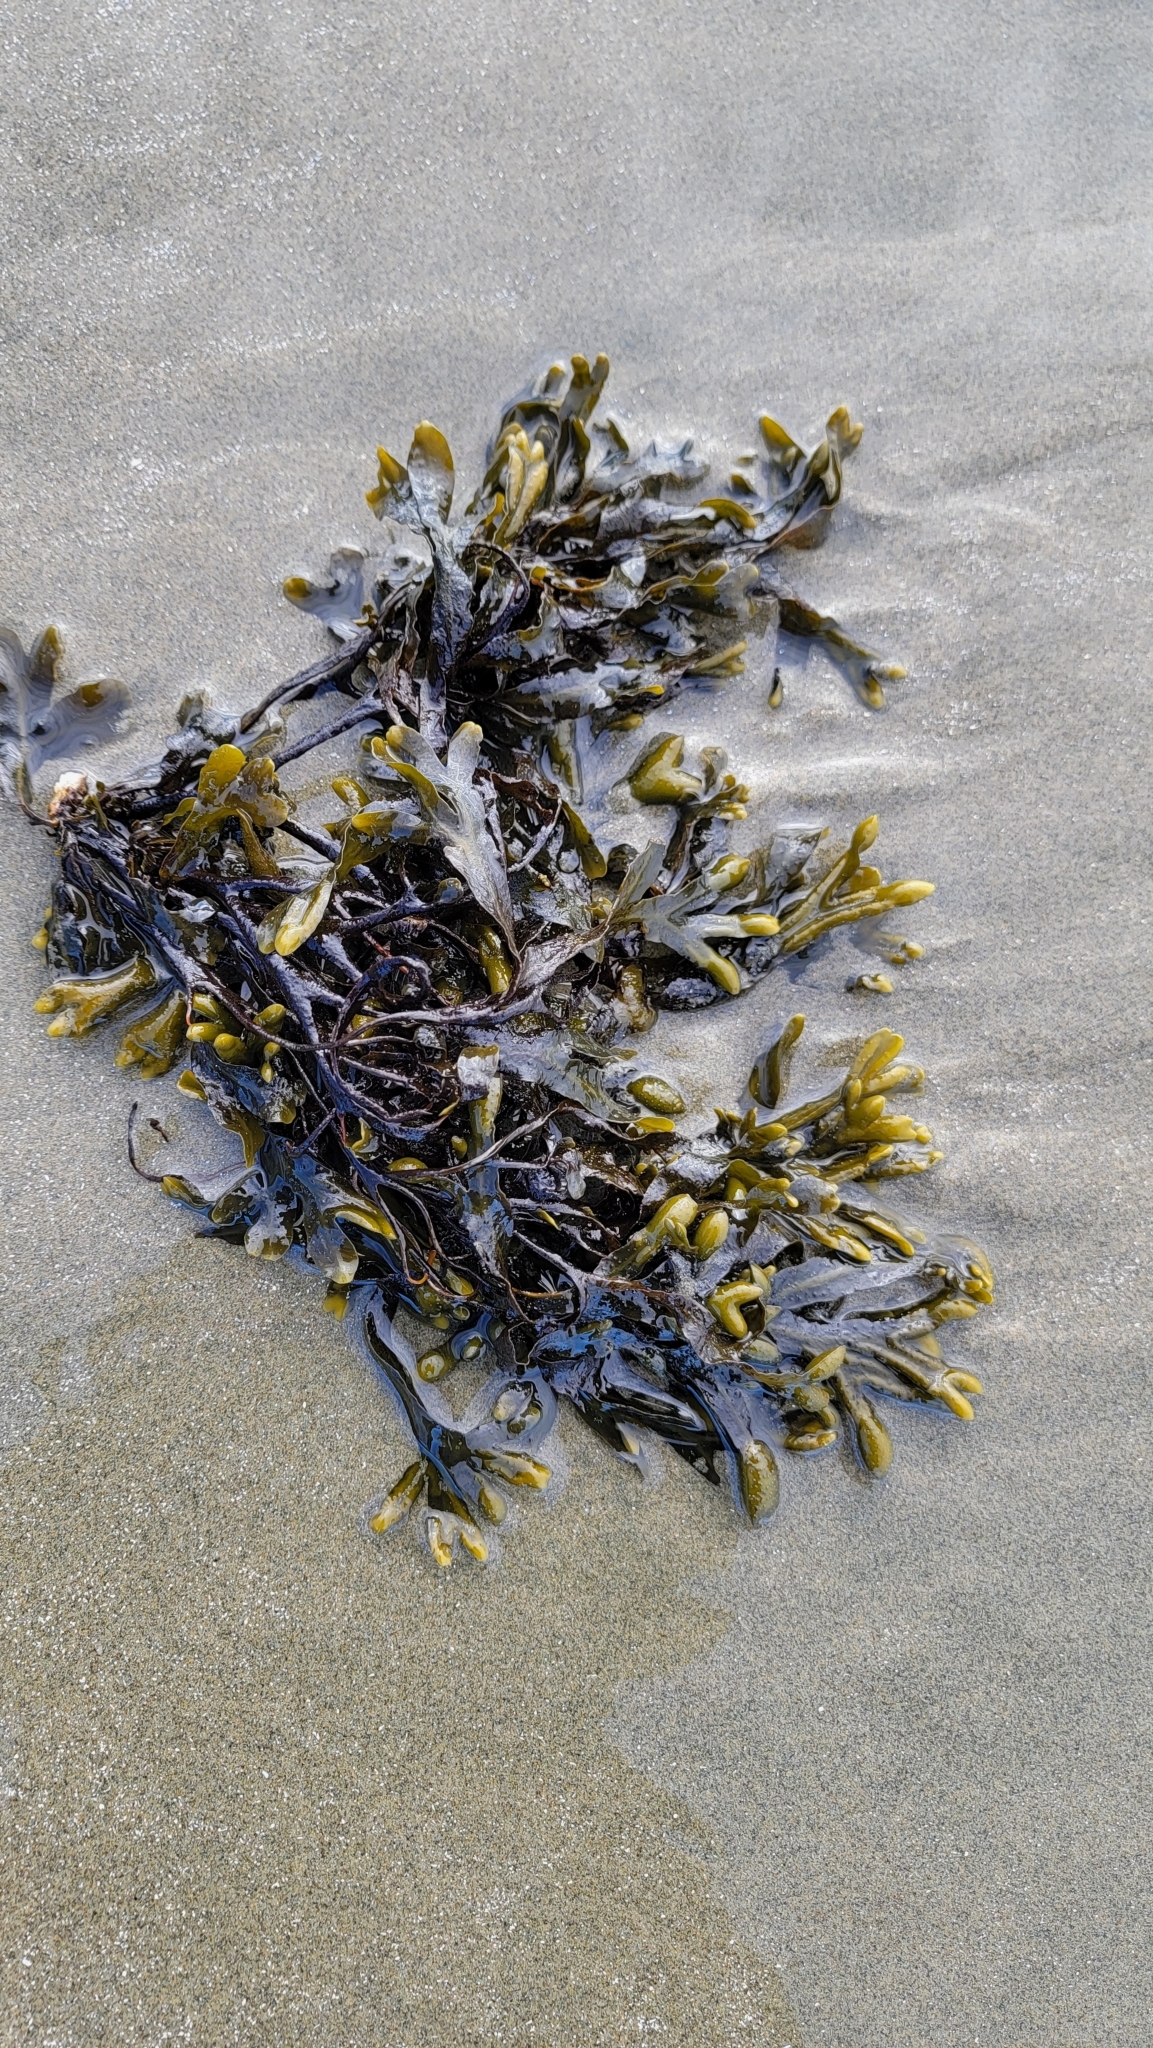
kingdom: Chromista
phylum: Ochrophyta
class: Phaeophyceae
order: Fucales
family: Fucaceae
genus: Fucus
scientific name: Fucus distichus
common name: Rockweed
